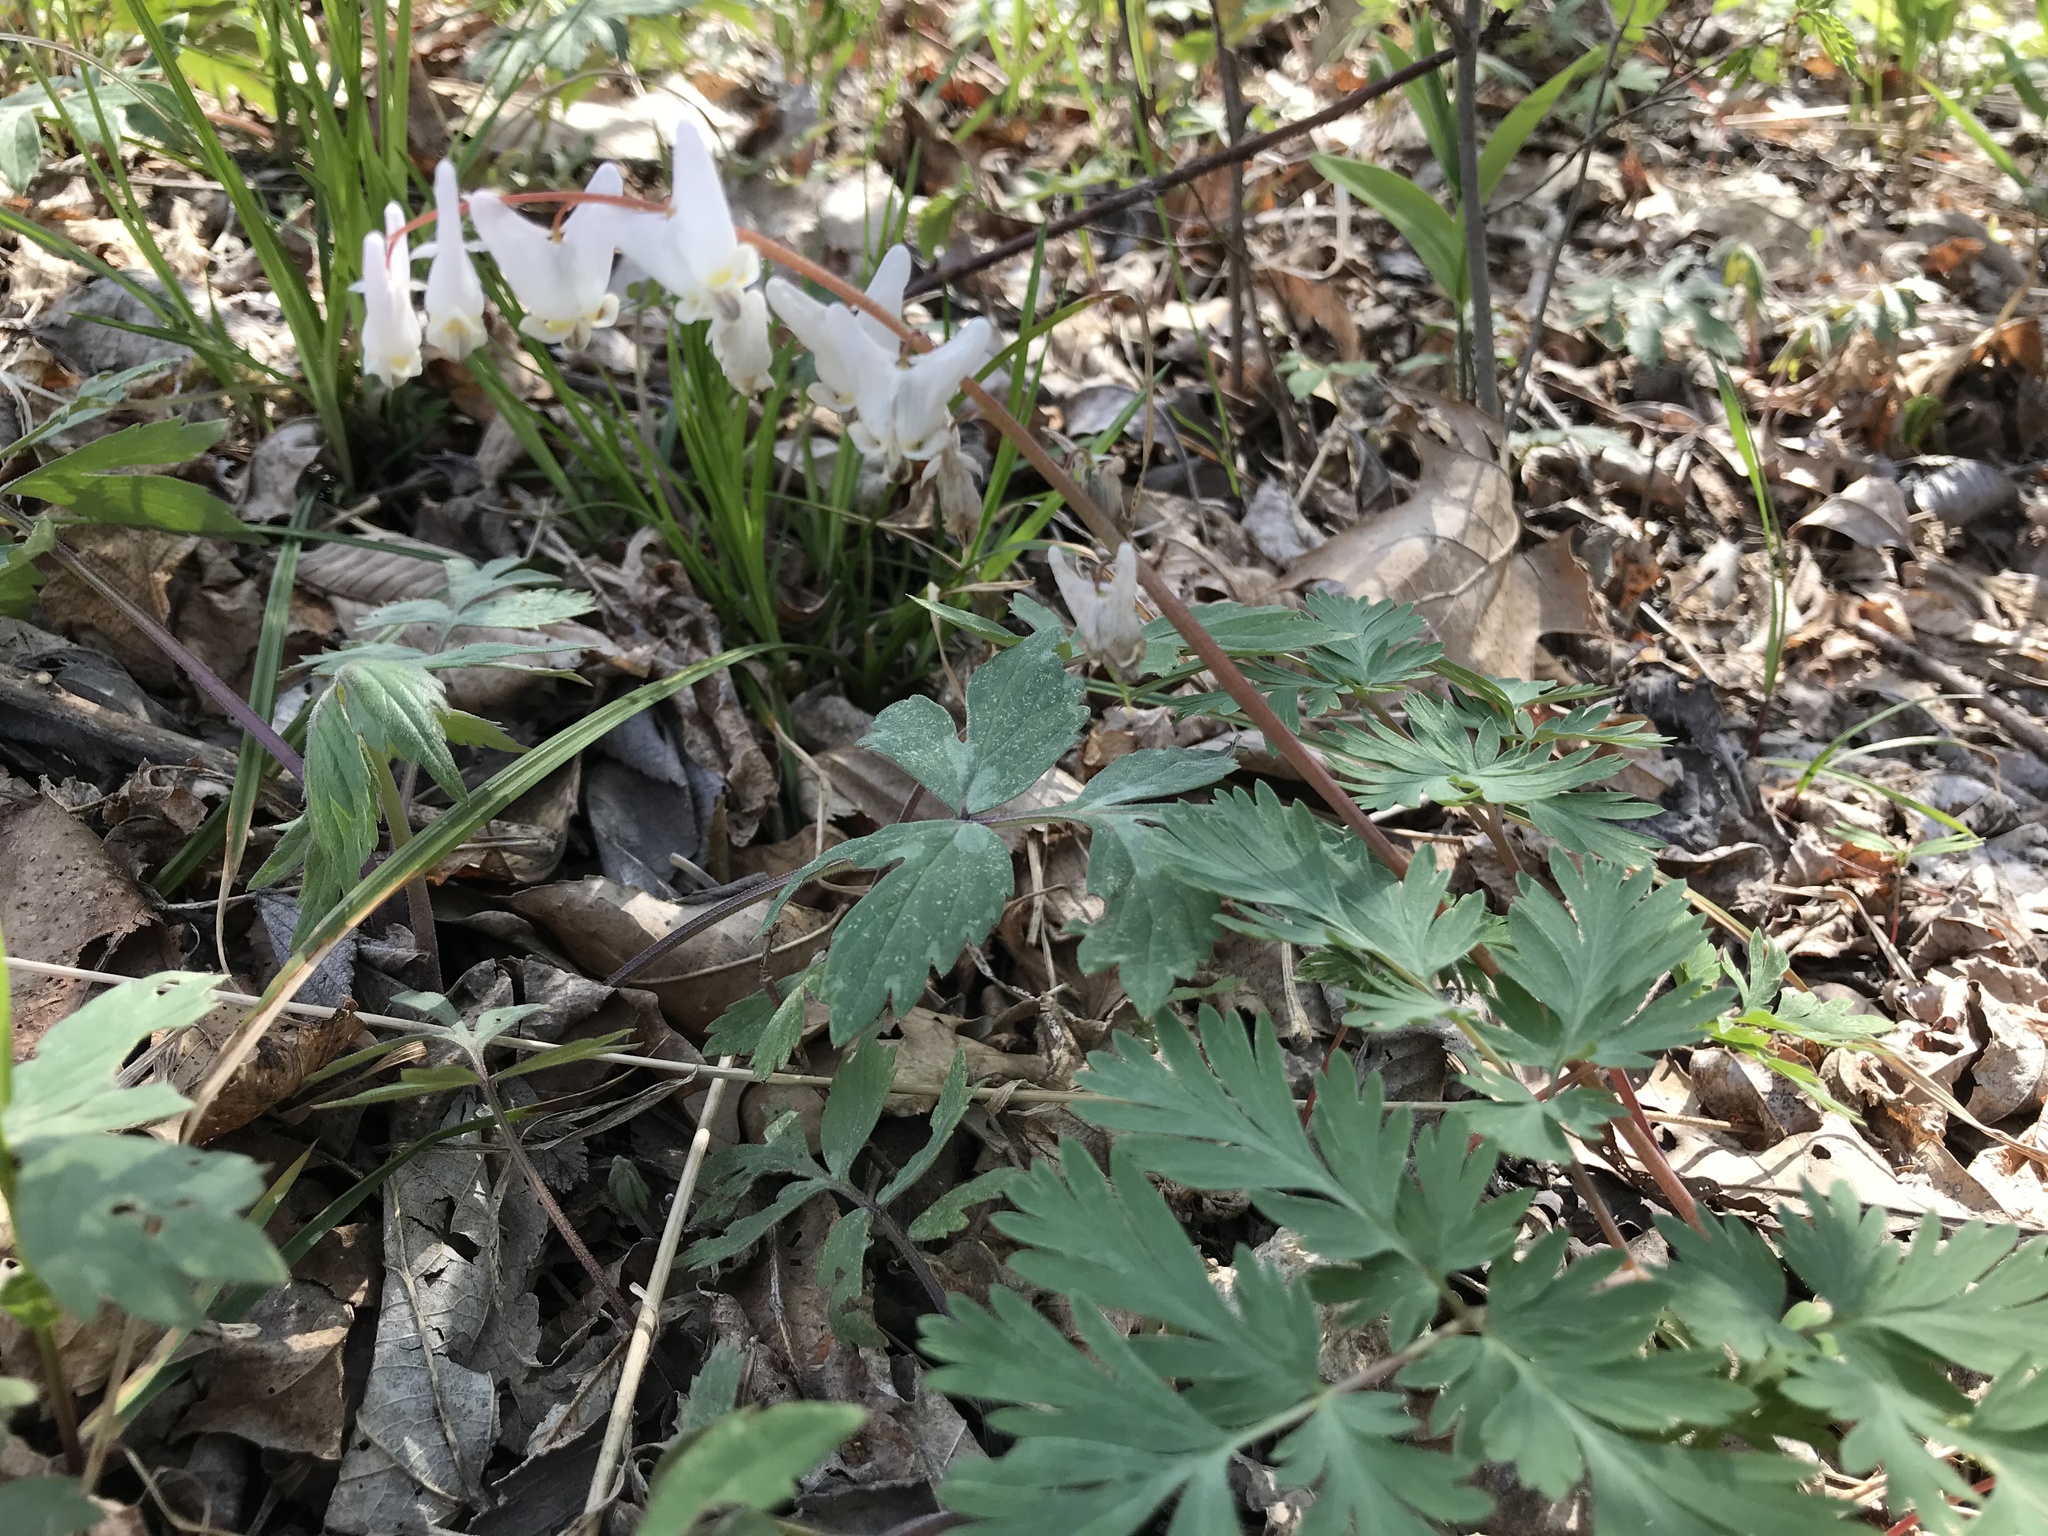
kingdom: Plantae
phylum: Tracheophyta
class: Magnoliopsida
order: Ranunculales
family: Papaveraceae
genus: Dicentra
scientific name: Dicentra cucullaria
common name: Dutchman's breeches
